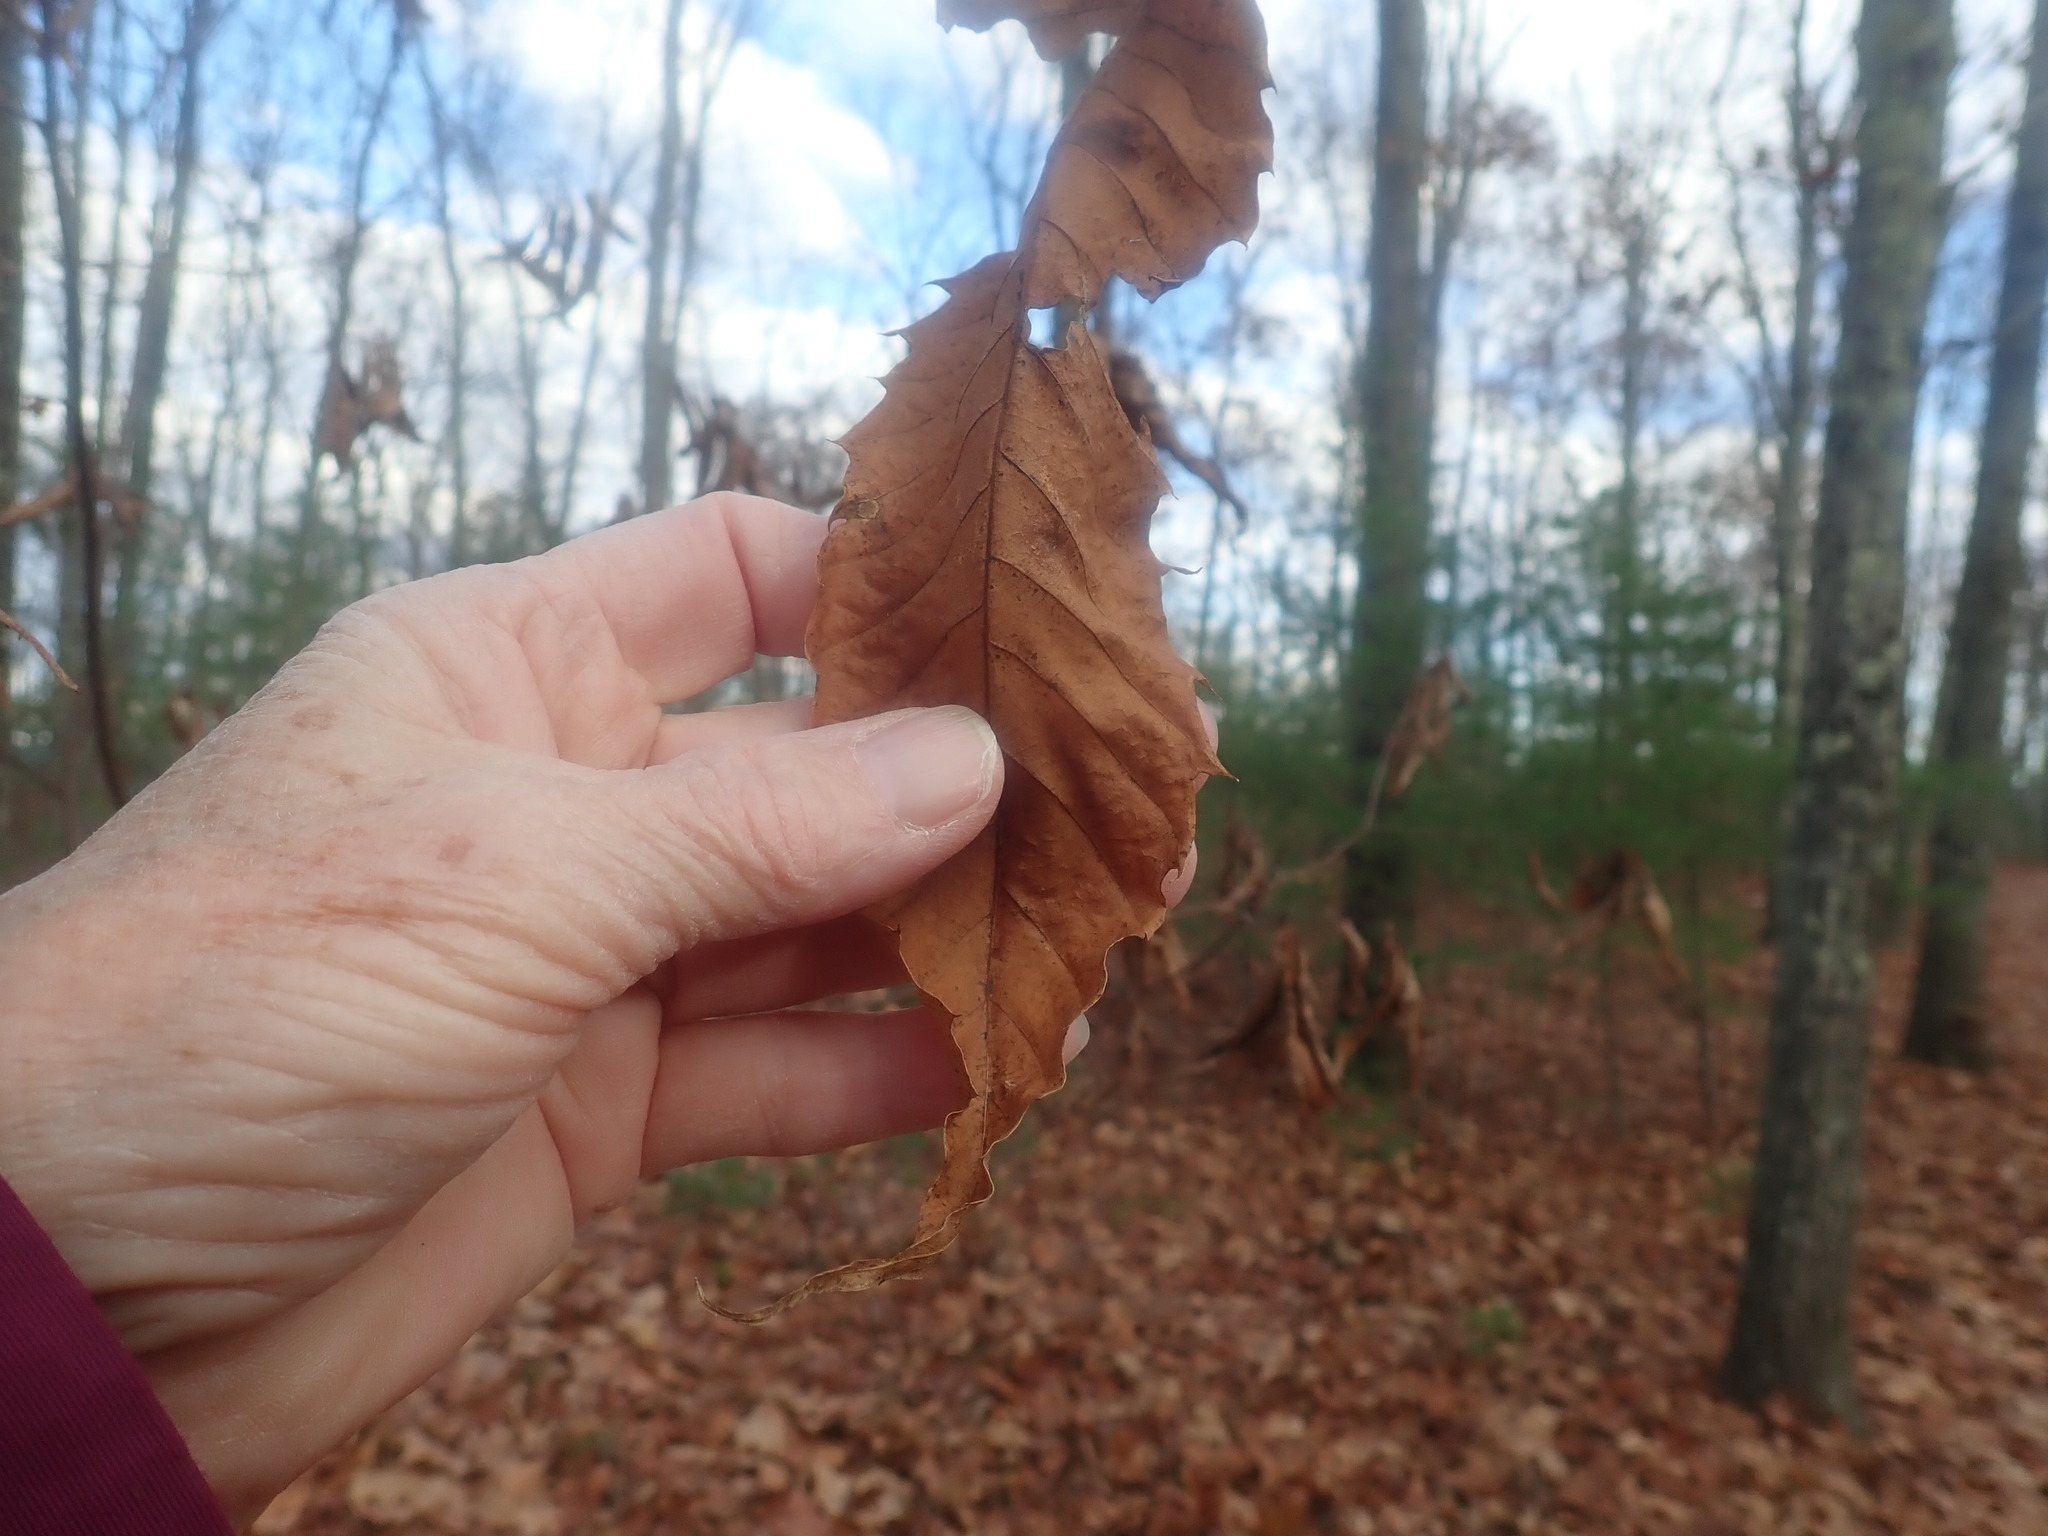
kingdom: Plantae
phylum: Tracheophyta
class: Magnoliopsida
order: Fagales
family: Fagaceae
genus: Castanea
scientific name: Castanea dentata
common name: American chestnut
